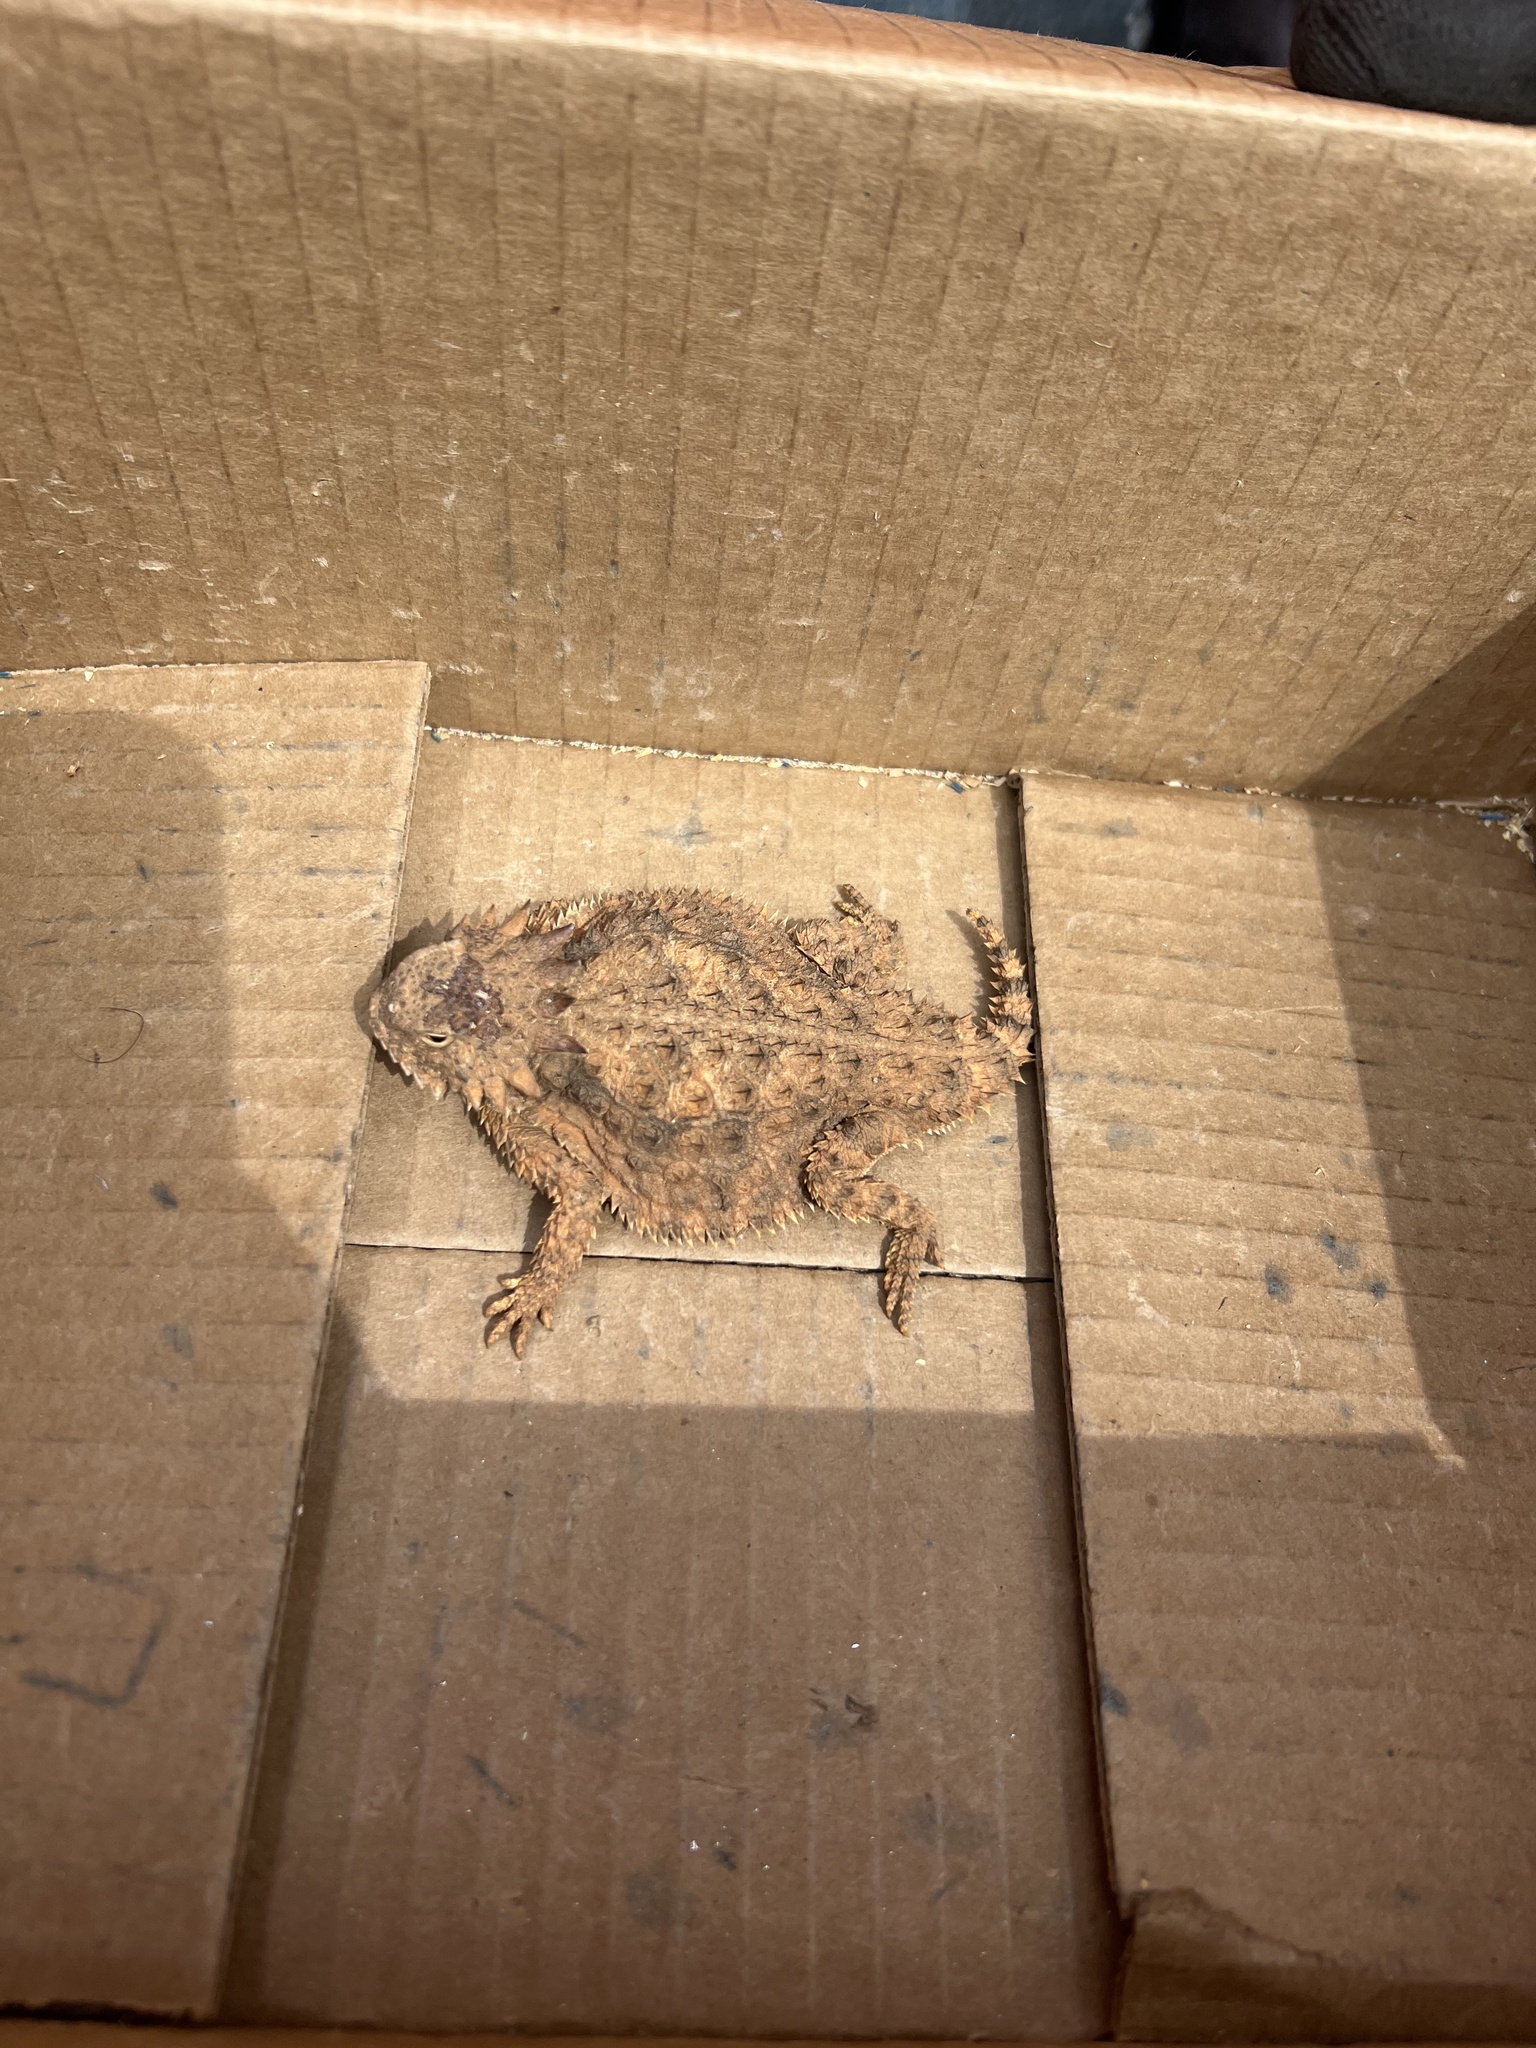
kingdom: Animalia
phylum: Chordata
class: Squamata
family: Phrynosomatidae
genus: Phrynosoma
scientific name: Phrynosoma solare
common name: Regal horned lizard
